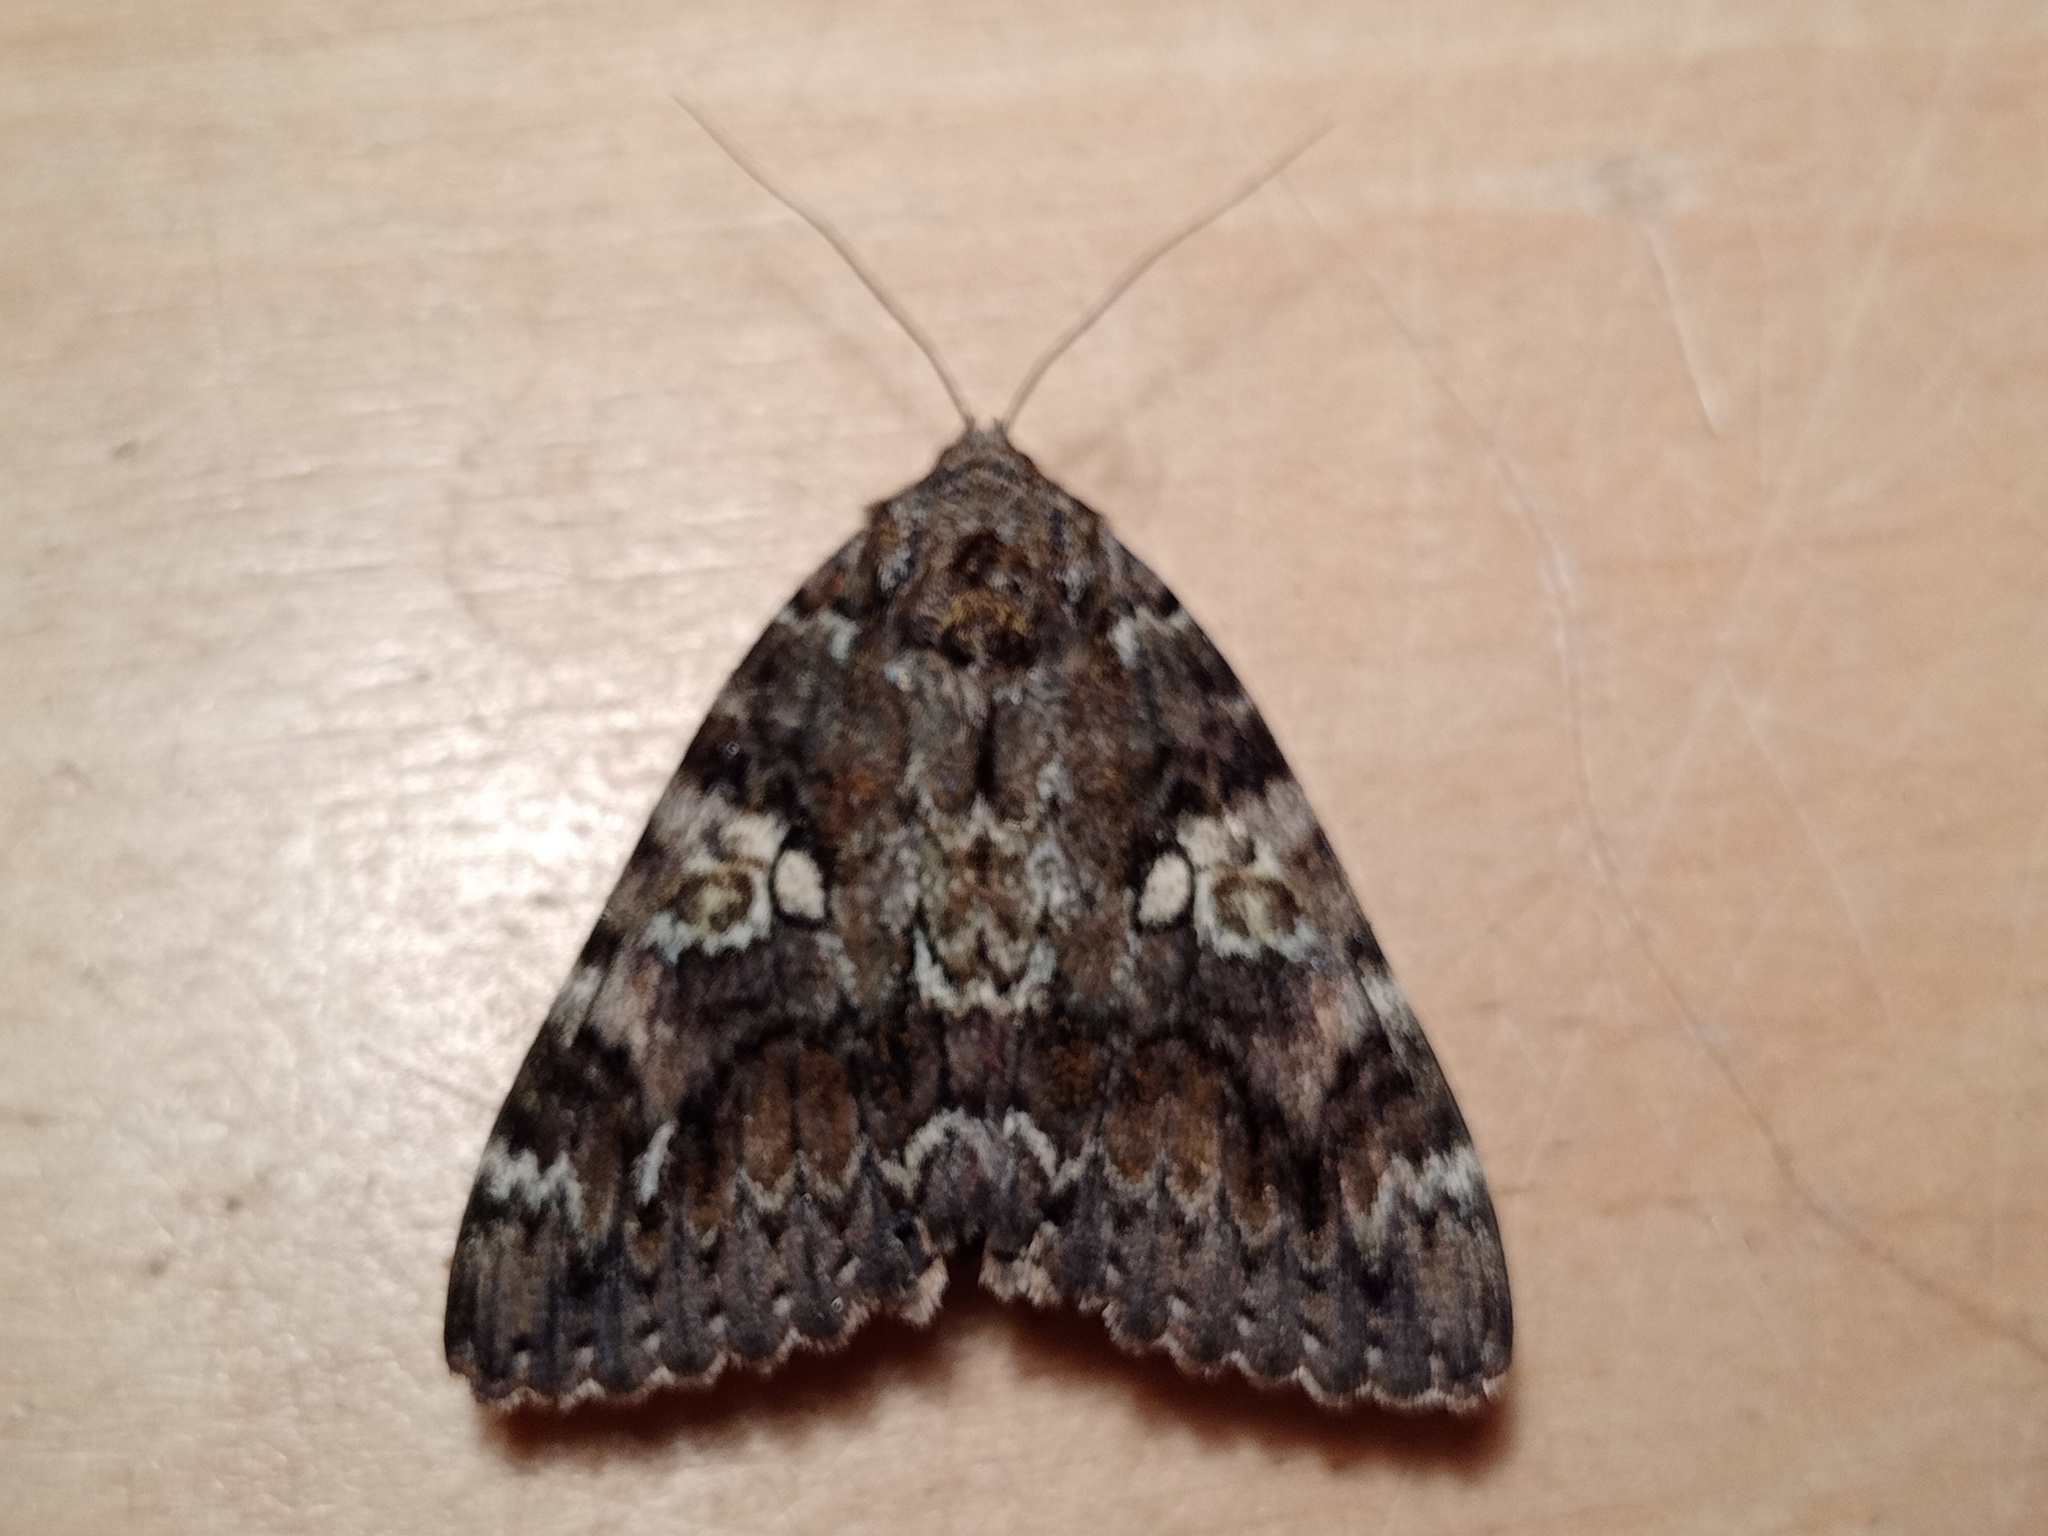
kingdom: Animalia
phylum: Arthropoda
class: Insecta
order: Lepidoptera
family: Erebidae
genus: Catocala
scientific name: Catocala sponsa
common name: Dark crimson underwing
